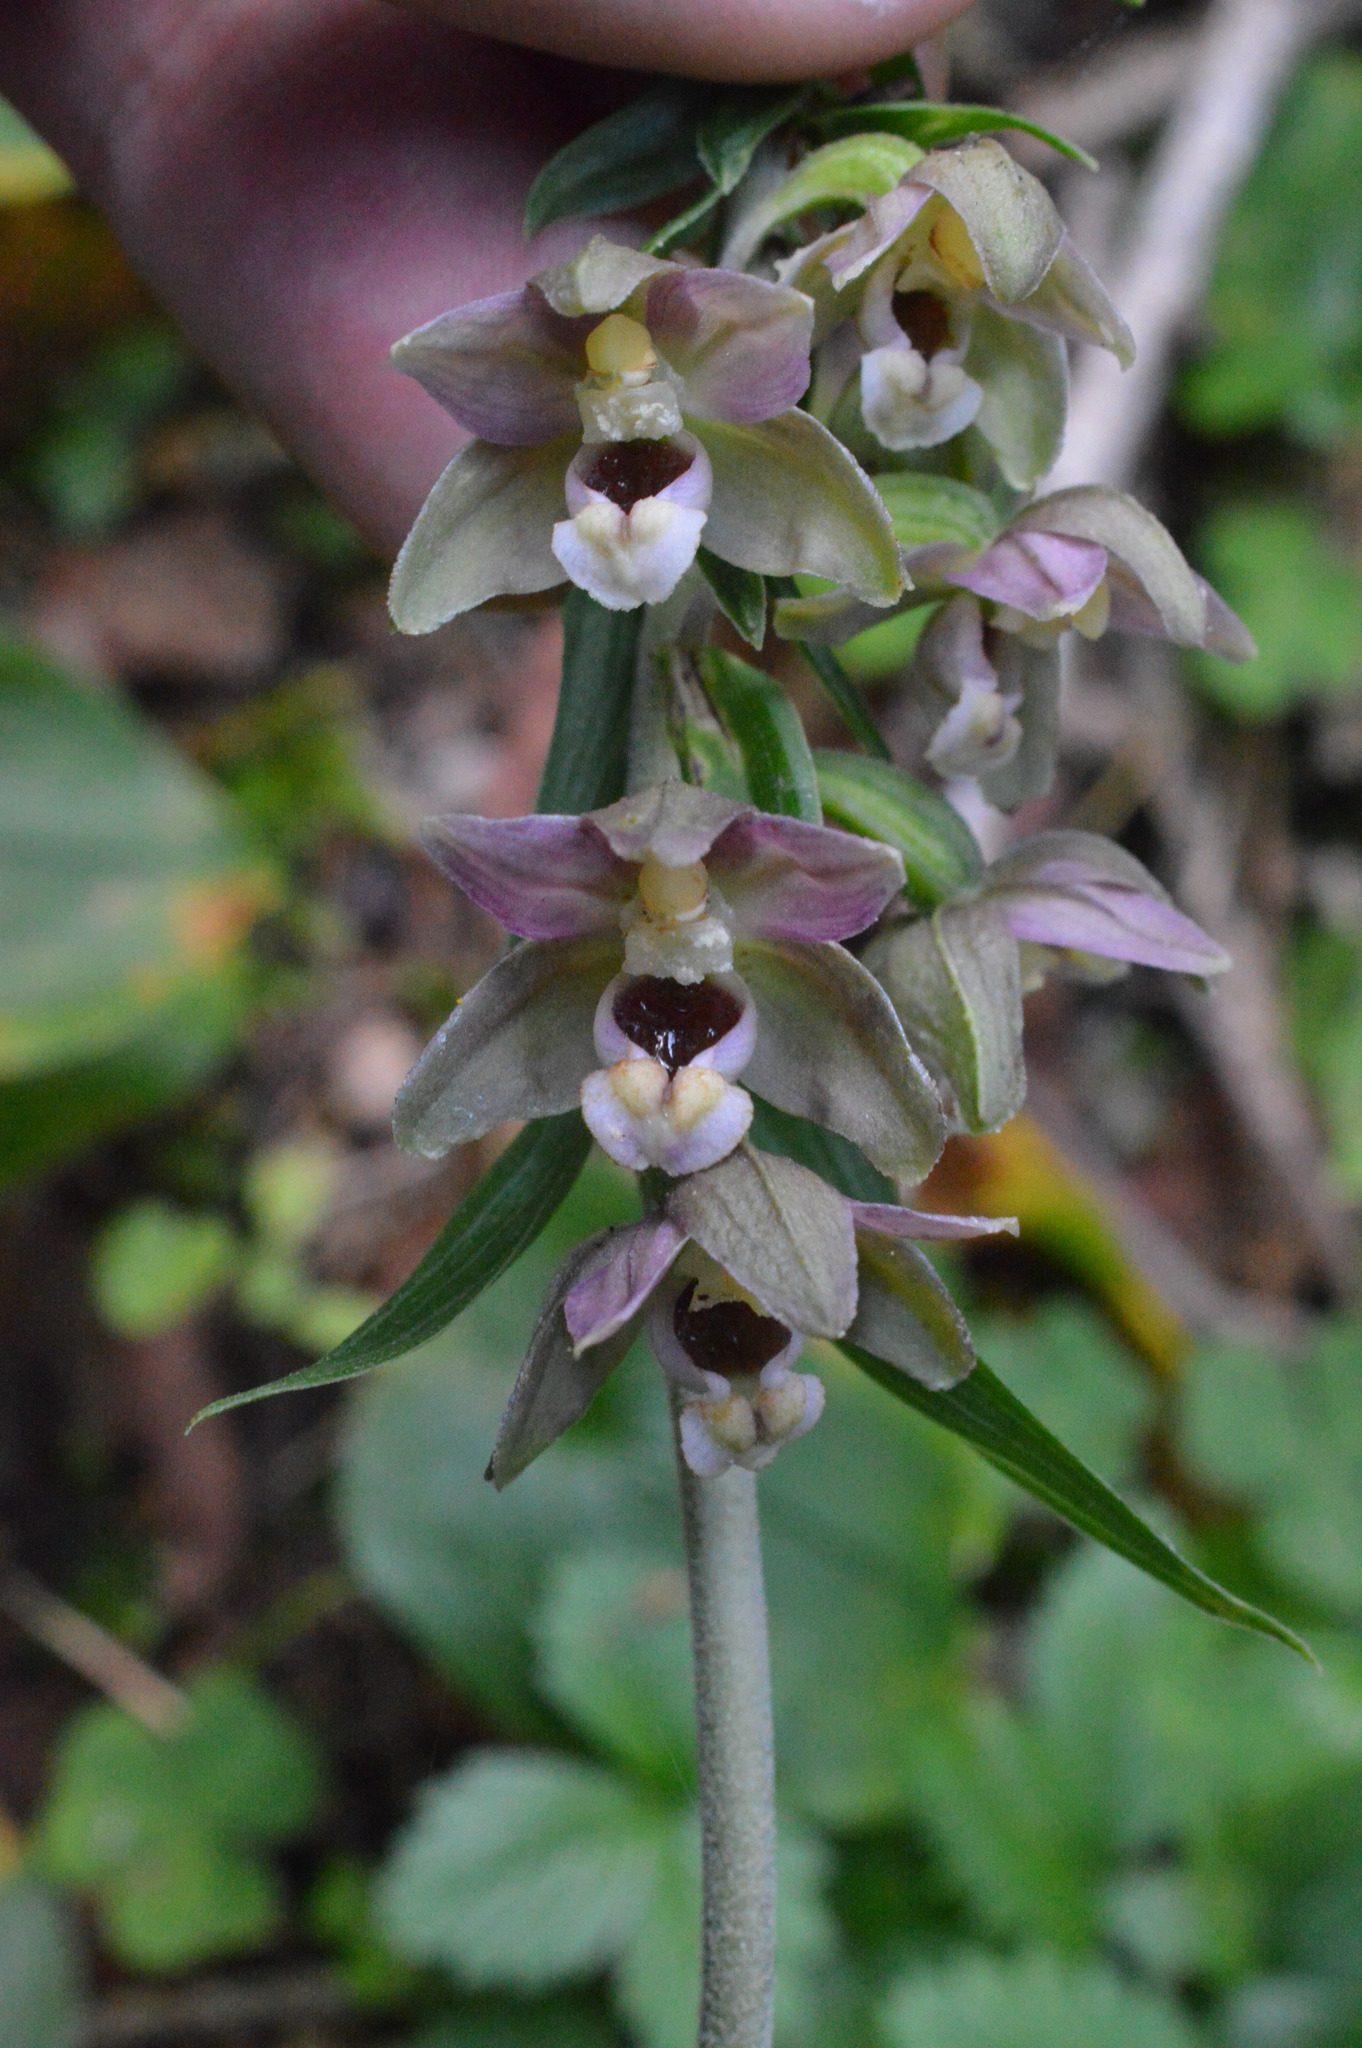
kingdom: Plantae
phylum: Tracheophyta
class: Liliopsida
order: Asparagales
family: Orchidaceae
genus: Epipactis
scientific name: Epipactis helleborine
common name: Broad-leaved helleborine
